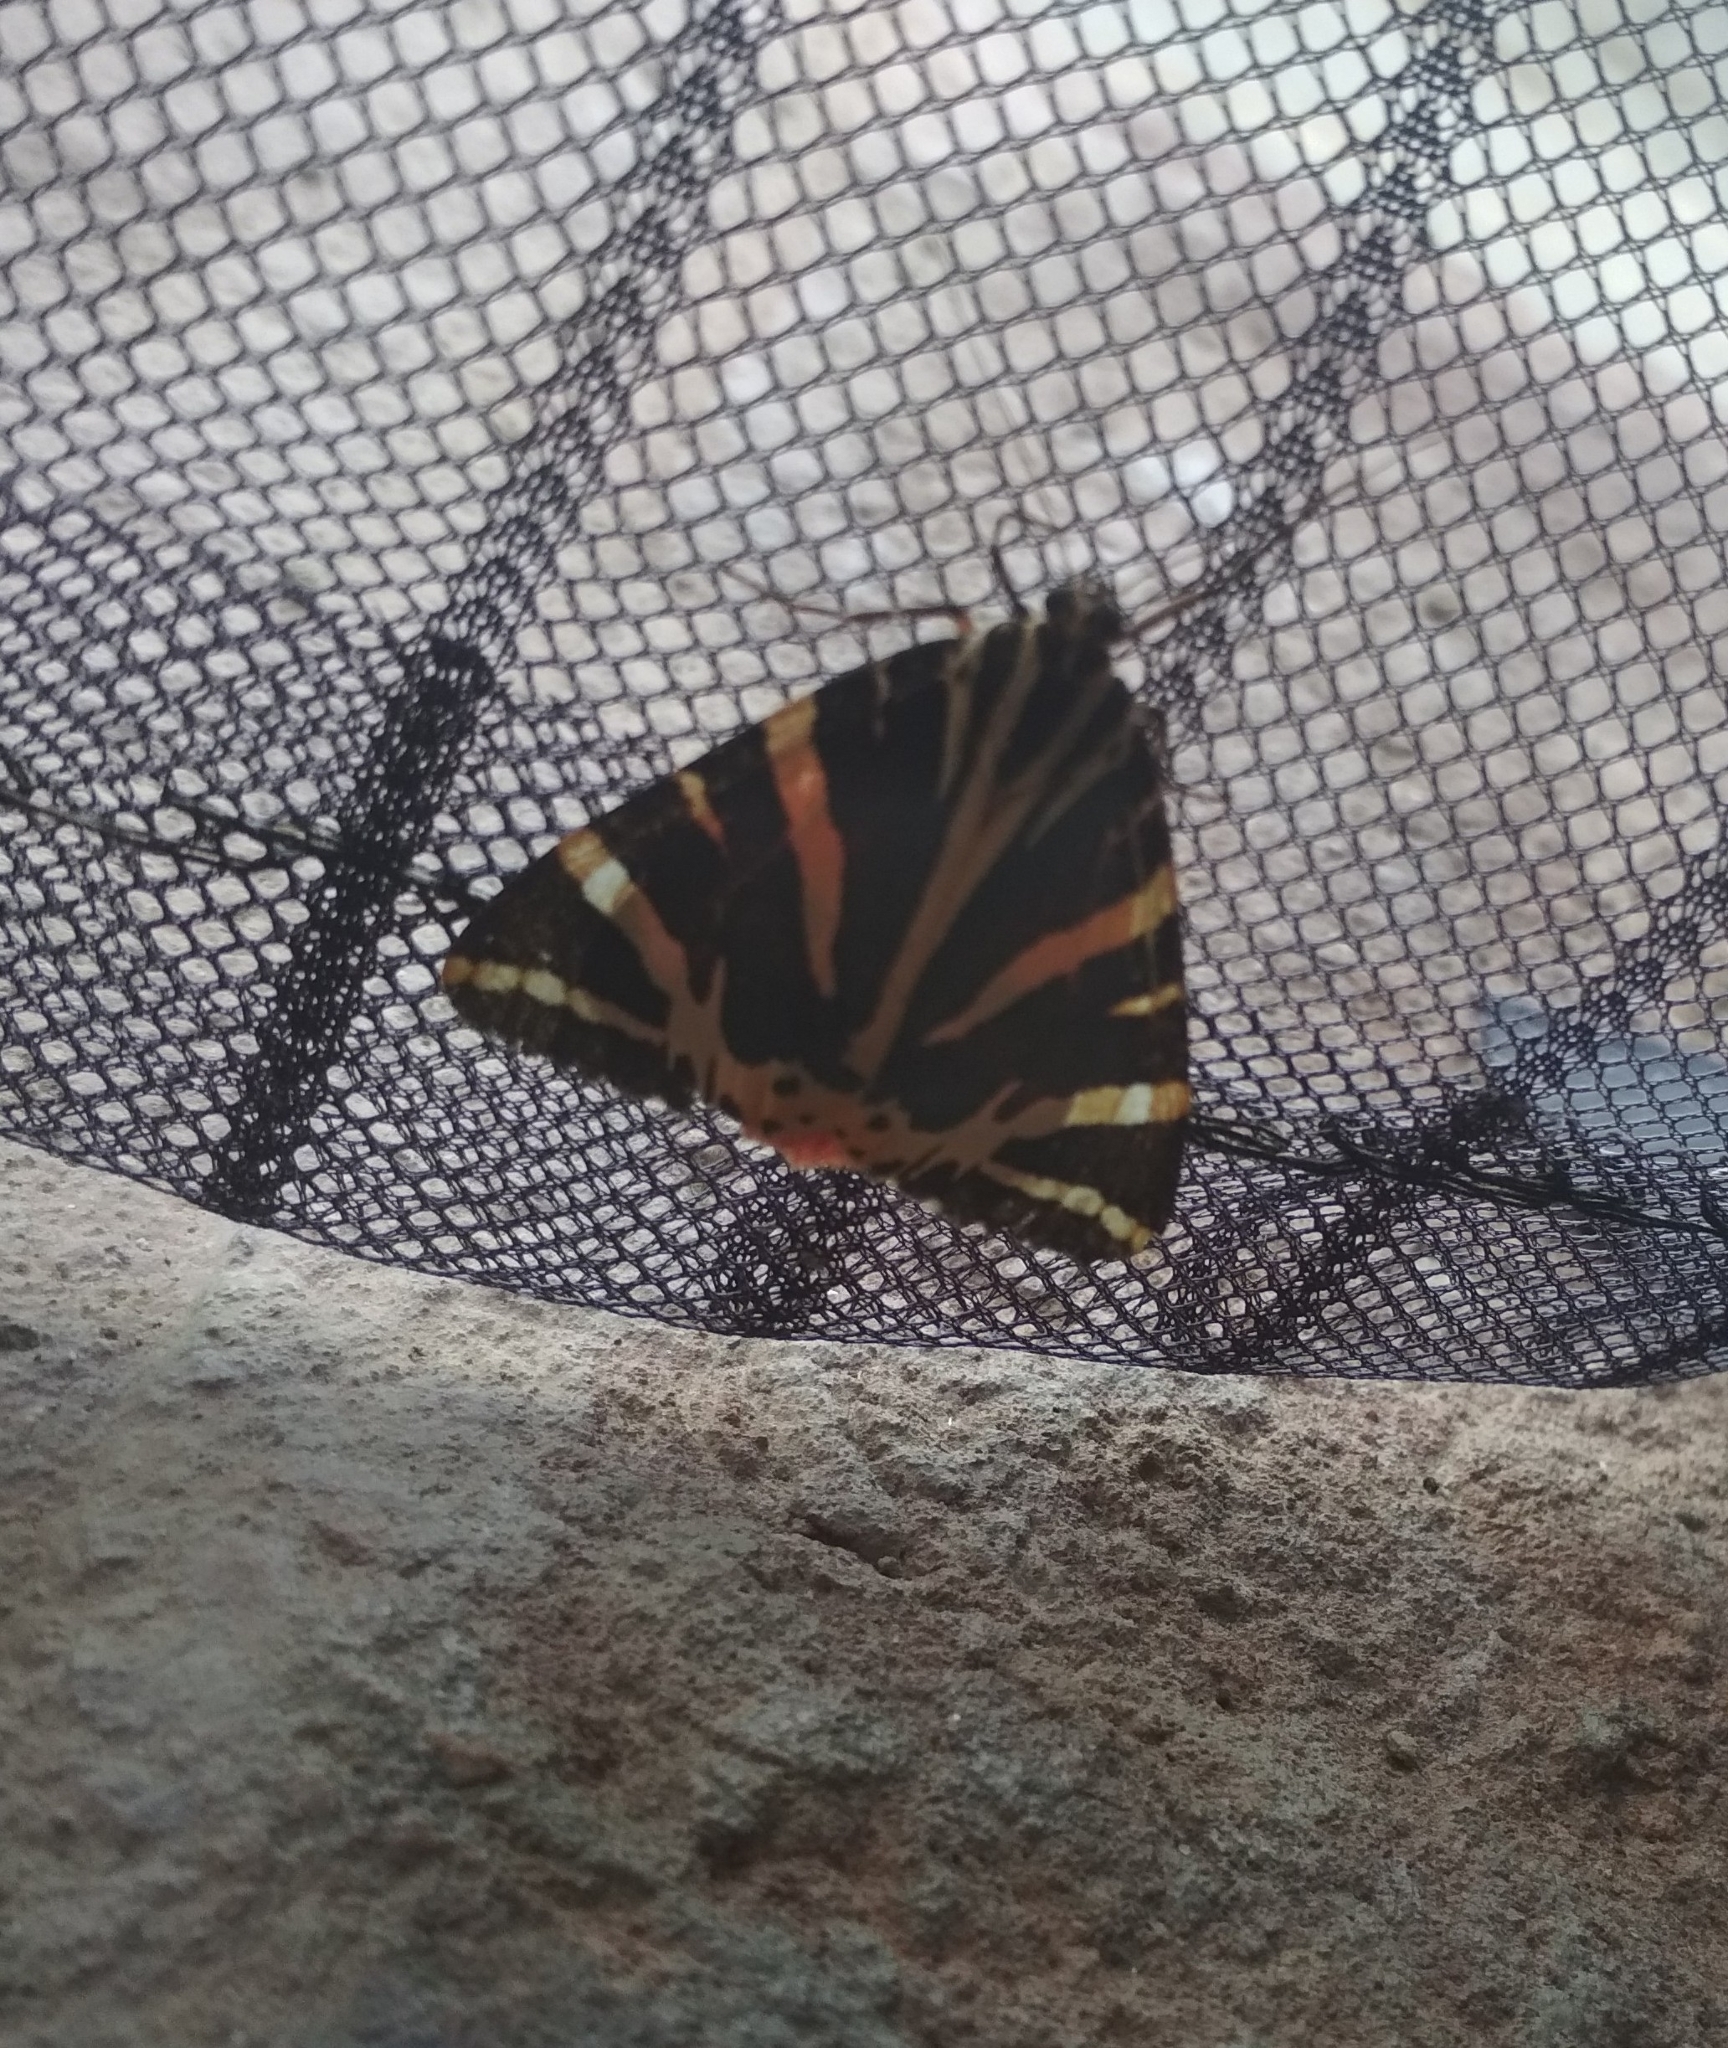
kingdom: Animalia
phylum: Arthropoda
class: Insecta
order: Lepidoptera
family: Erebidae
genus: Euplagia
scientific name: Euplagia quadripunctaria
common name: Jersey tiger
